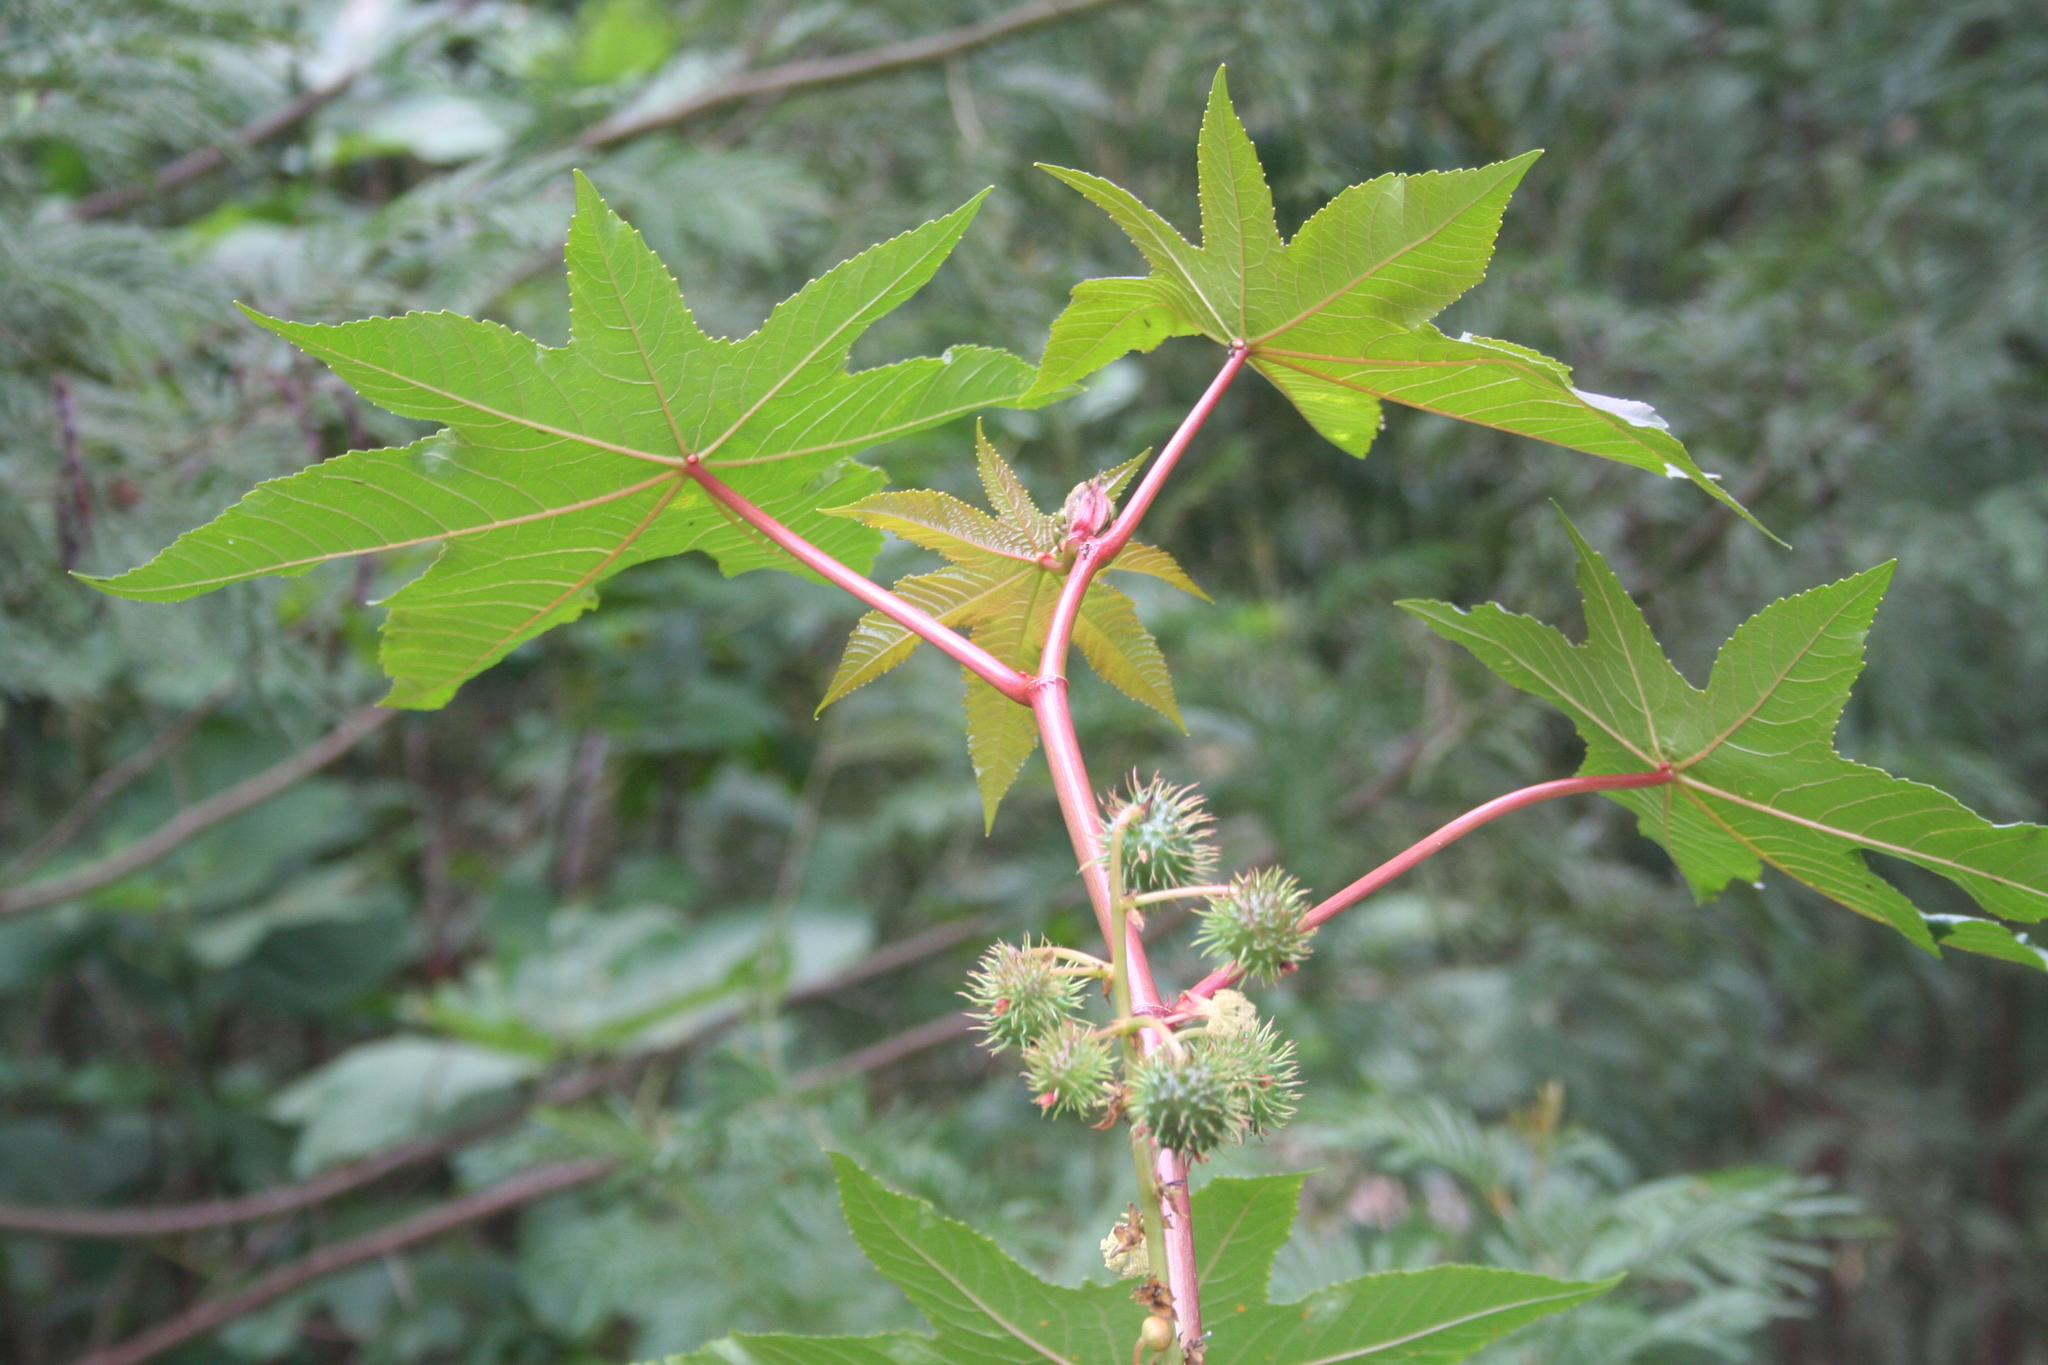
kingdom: Plantae
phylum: Tracheophyta
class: Magnoliopsida
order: Malpighiales
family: Euphorbiaceae
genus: Ricinus
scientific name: Ricinus communis
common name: Castor-oil-plant
